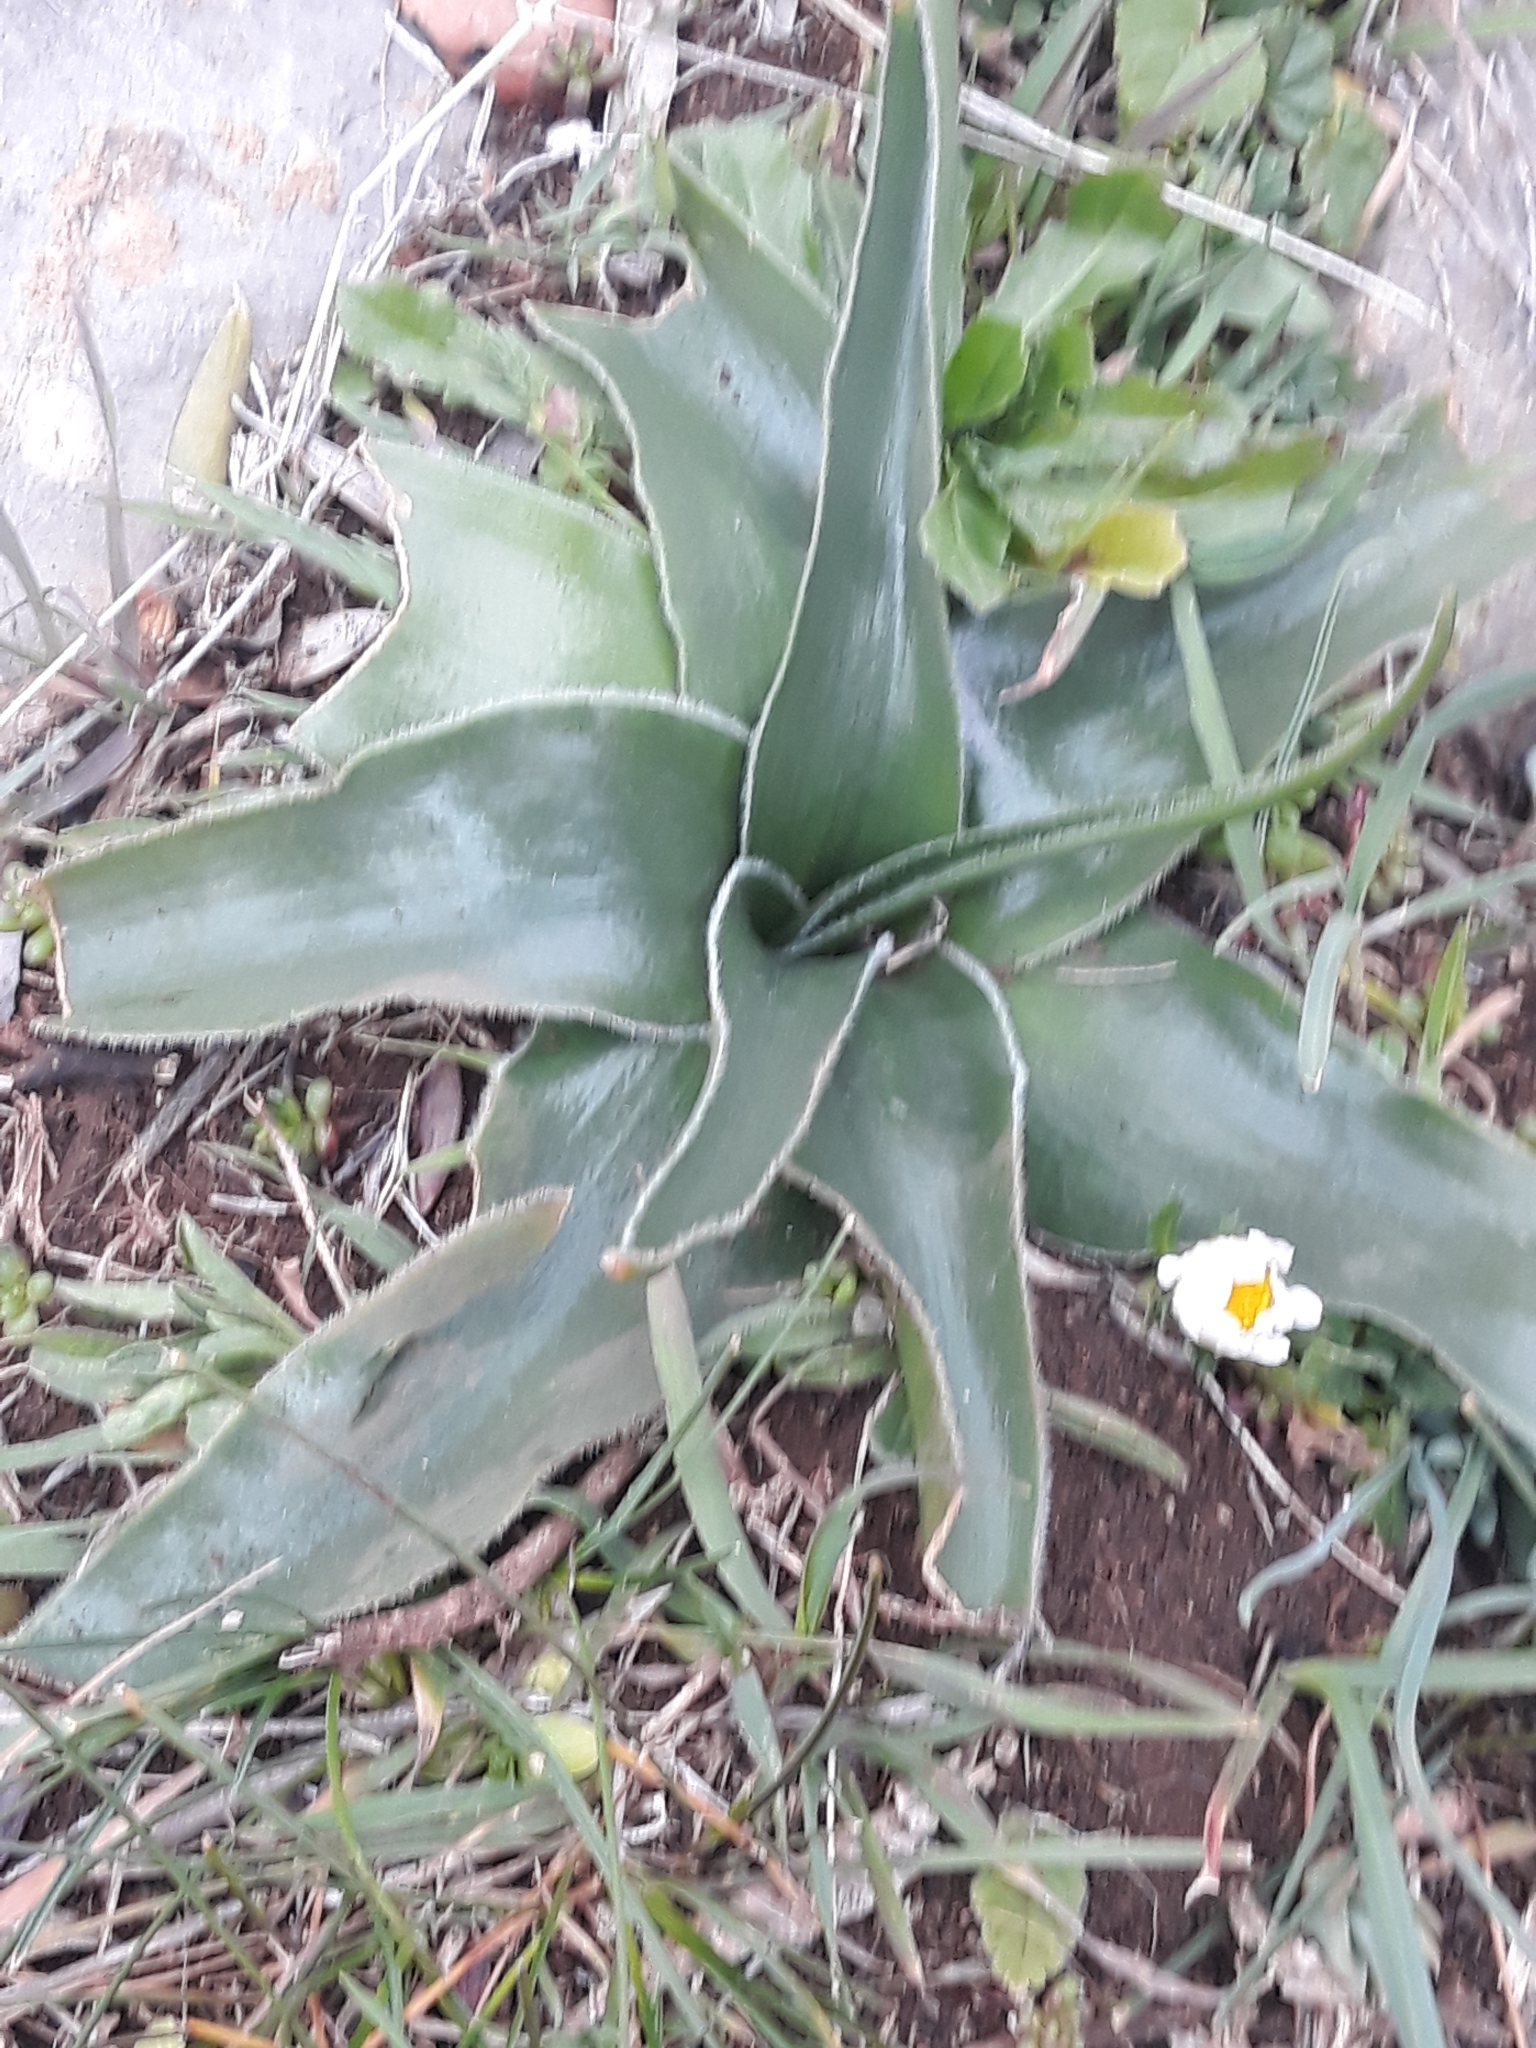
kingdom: Plantae
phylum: Tracheophyta
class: Liliopsida
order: Asparagales
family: Asparagaceae
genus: Scilla
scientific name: Scilla peruviana
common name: Portuguese squill
